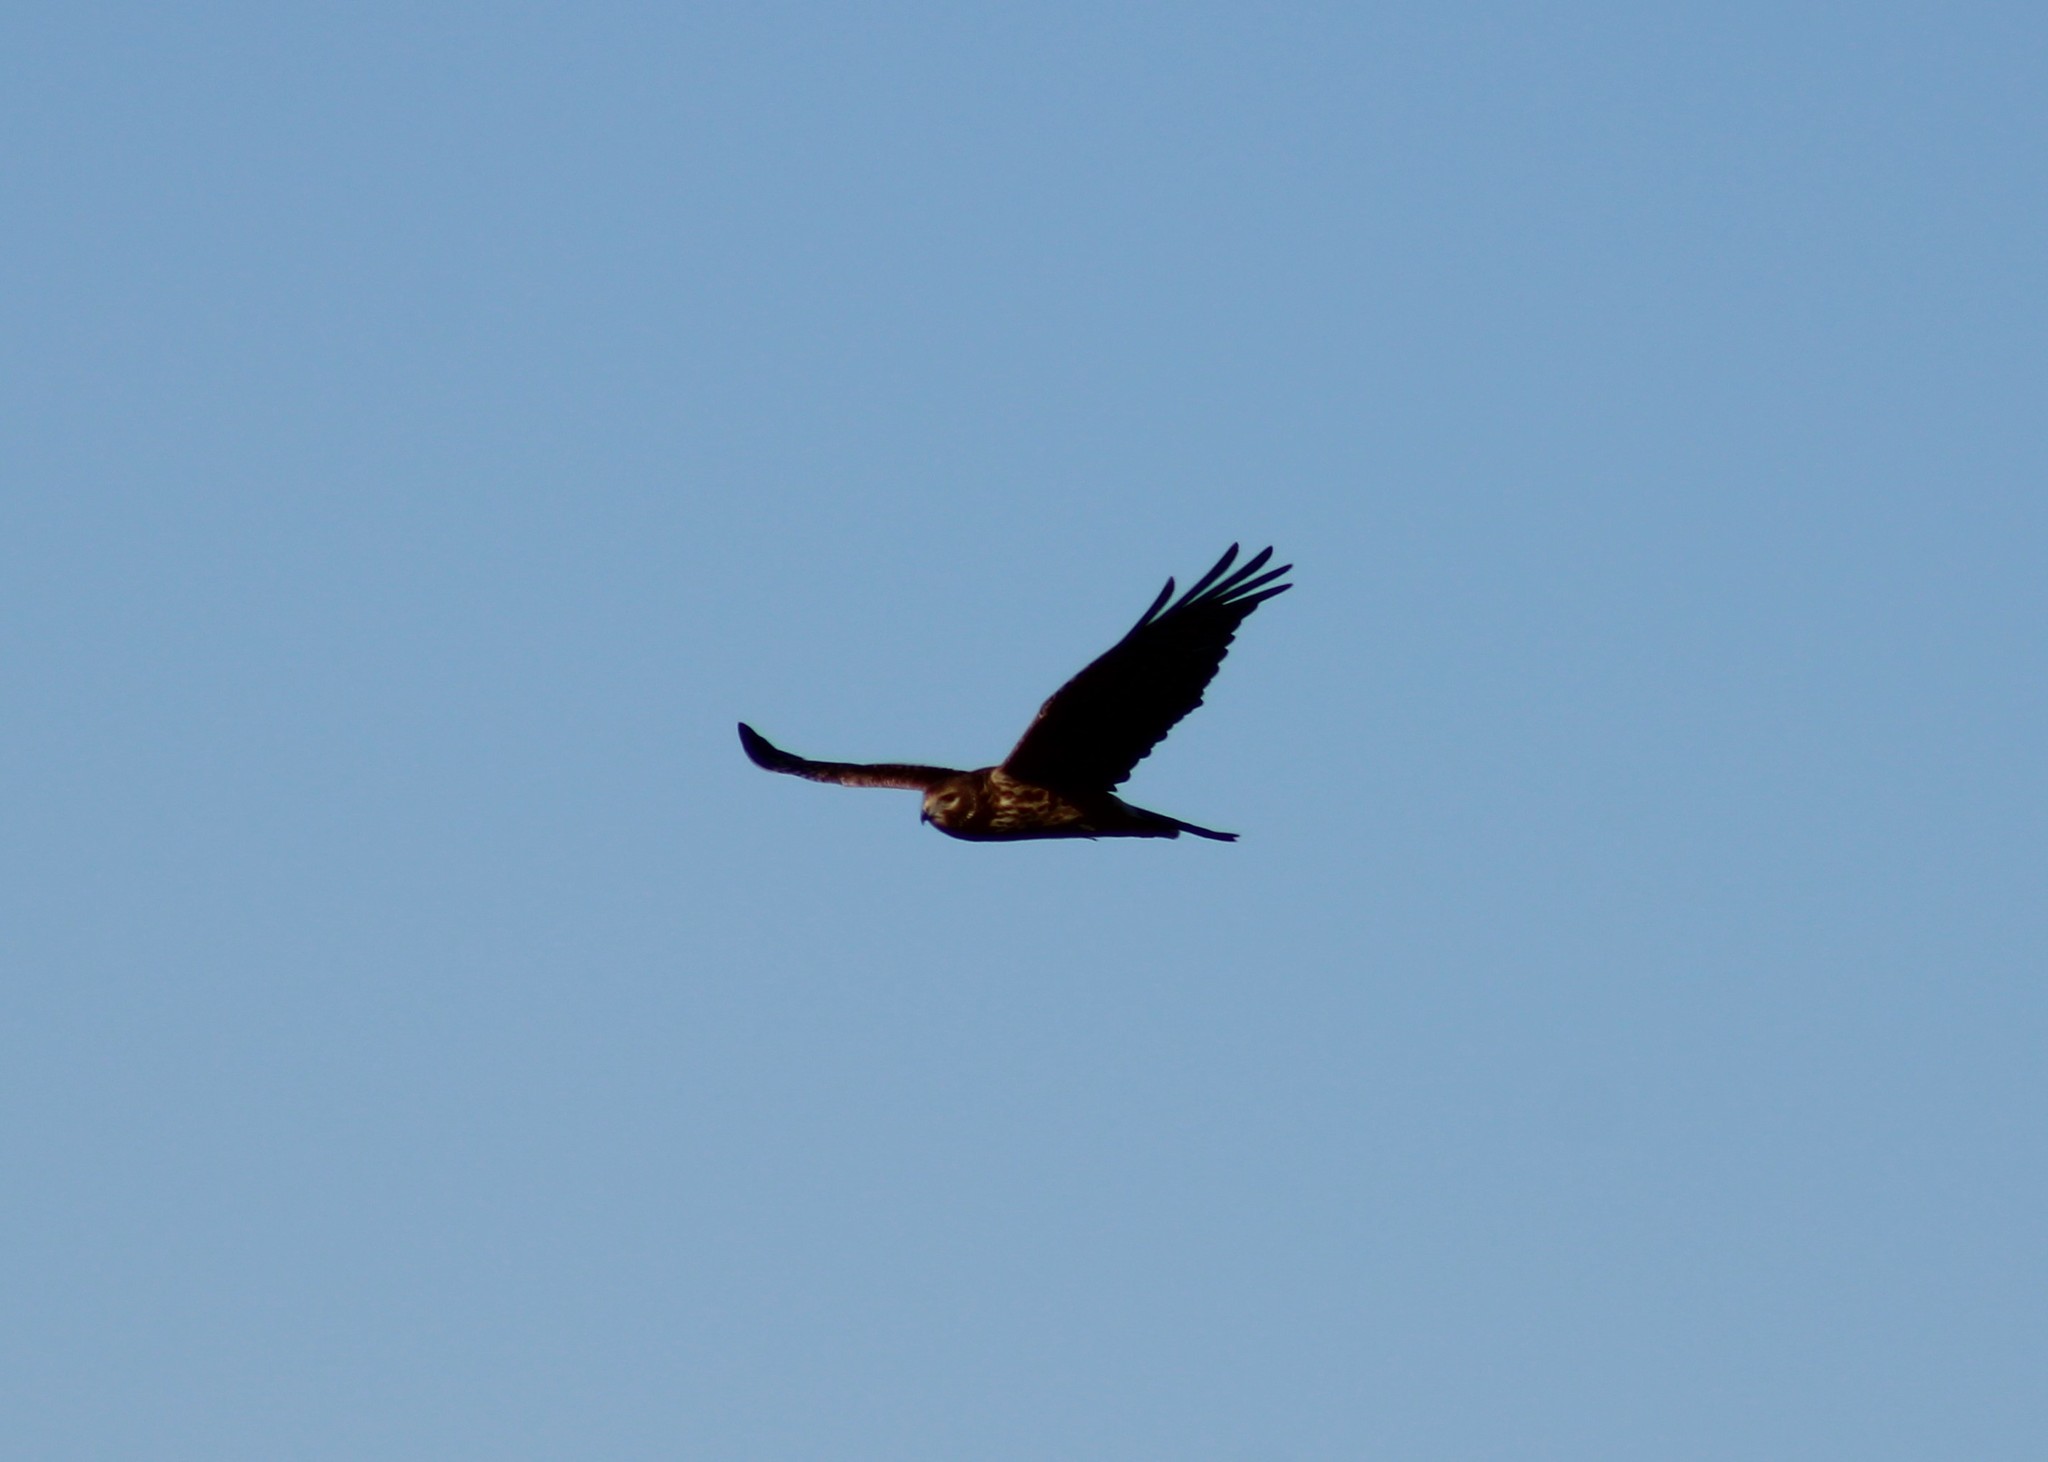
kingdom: Animalia
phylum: Chordata
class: Aves
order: Accipitriformes
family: Accipitridae
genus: Circus
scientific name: Circus cyaneus
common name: Hen harrier
